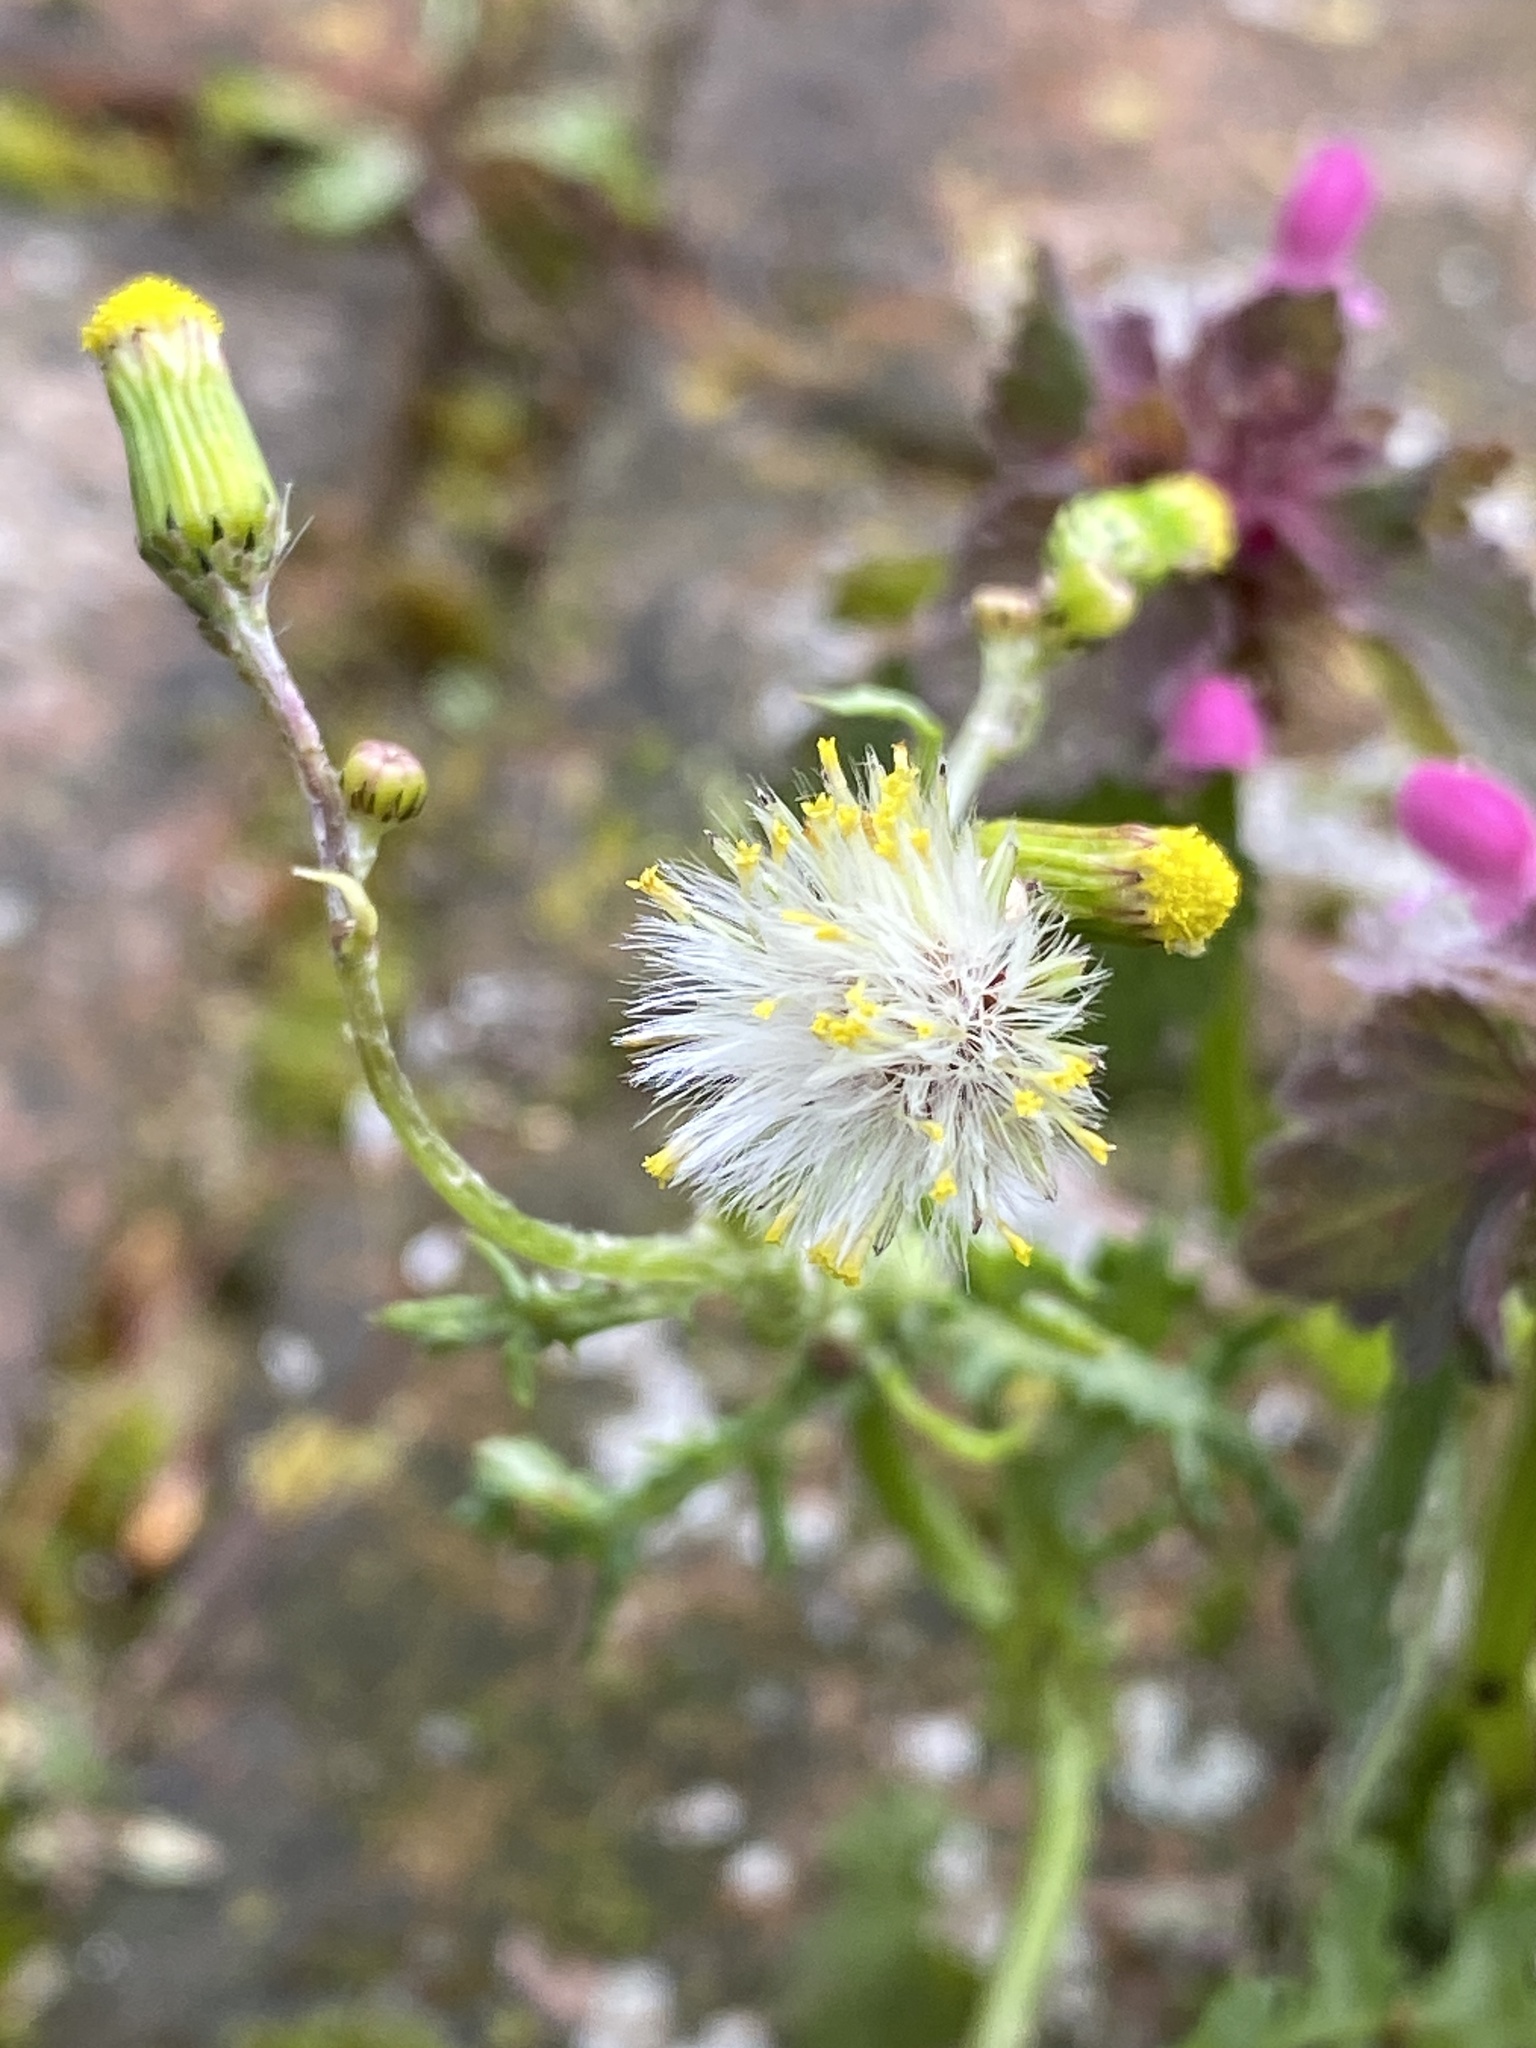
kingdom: Plantae
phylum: Tracheophyta
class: Magnoliopsida
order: Asterales
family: Asteraceae
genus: Senecio
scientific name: Senecio vulgaris
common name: Old-man-in-the-spring
